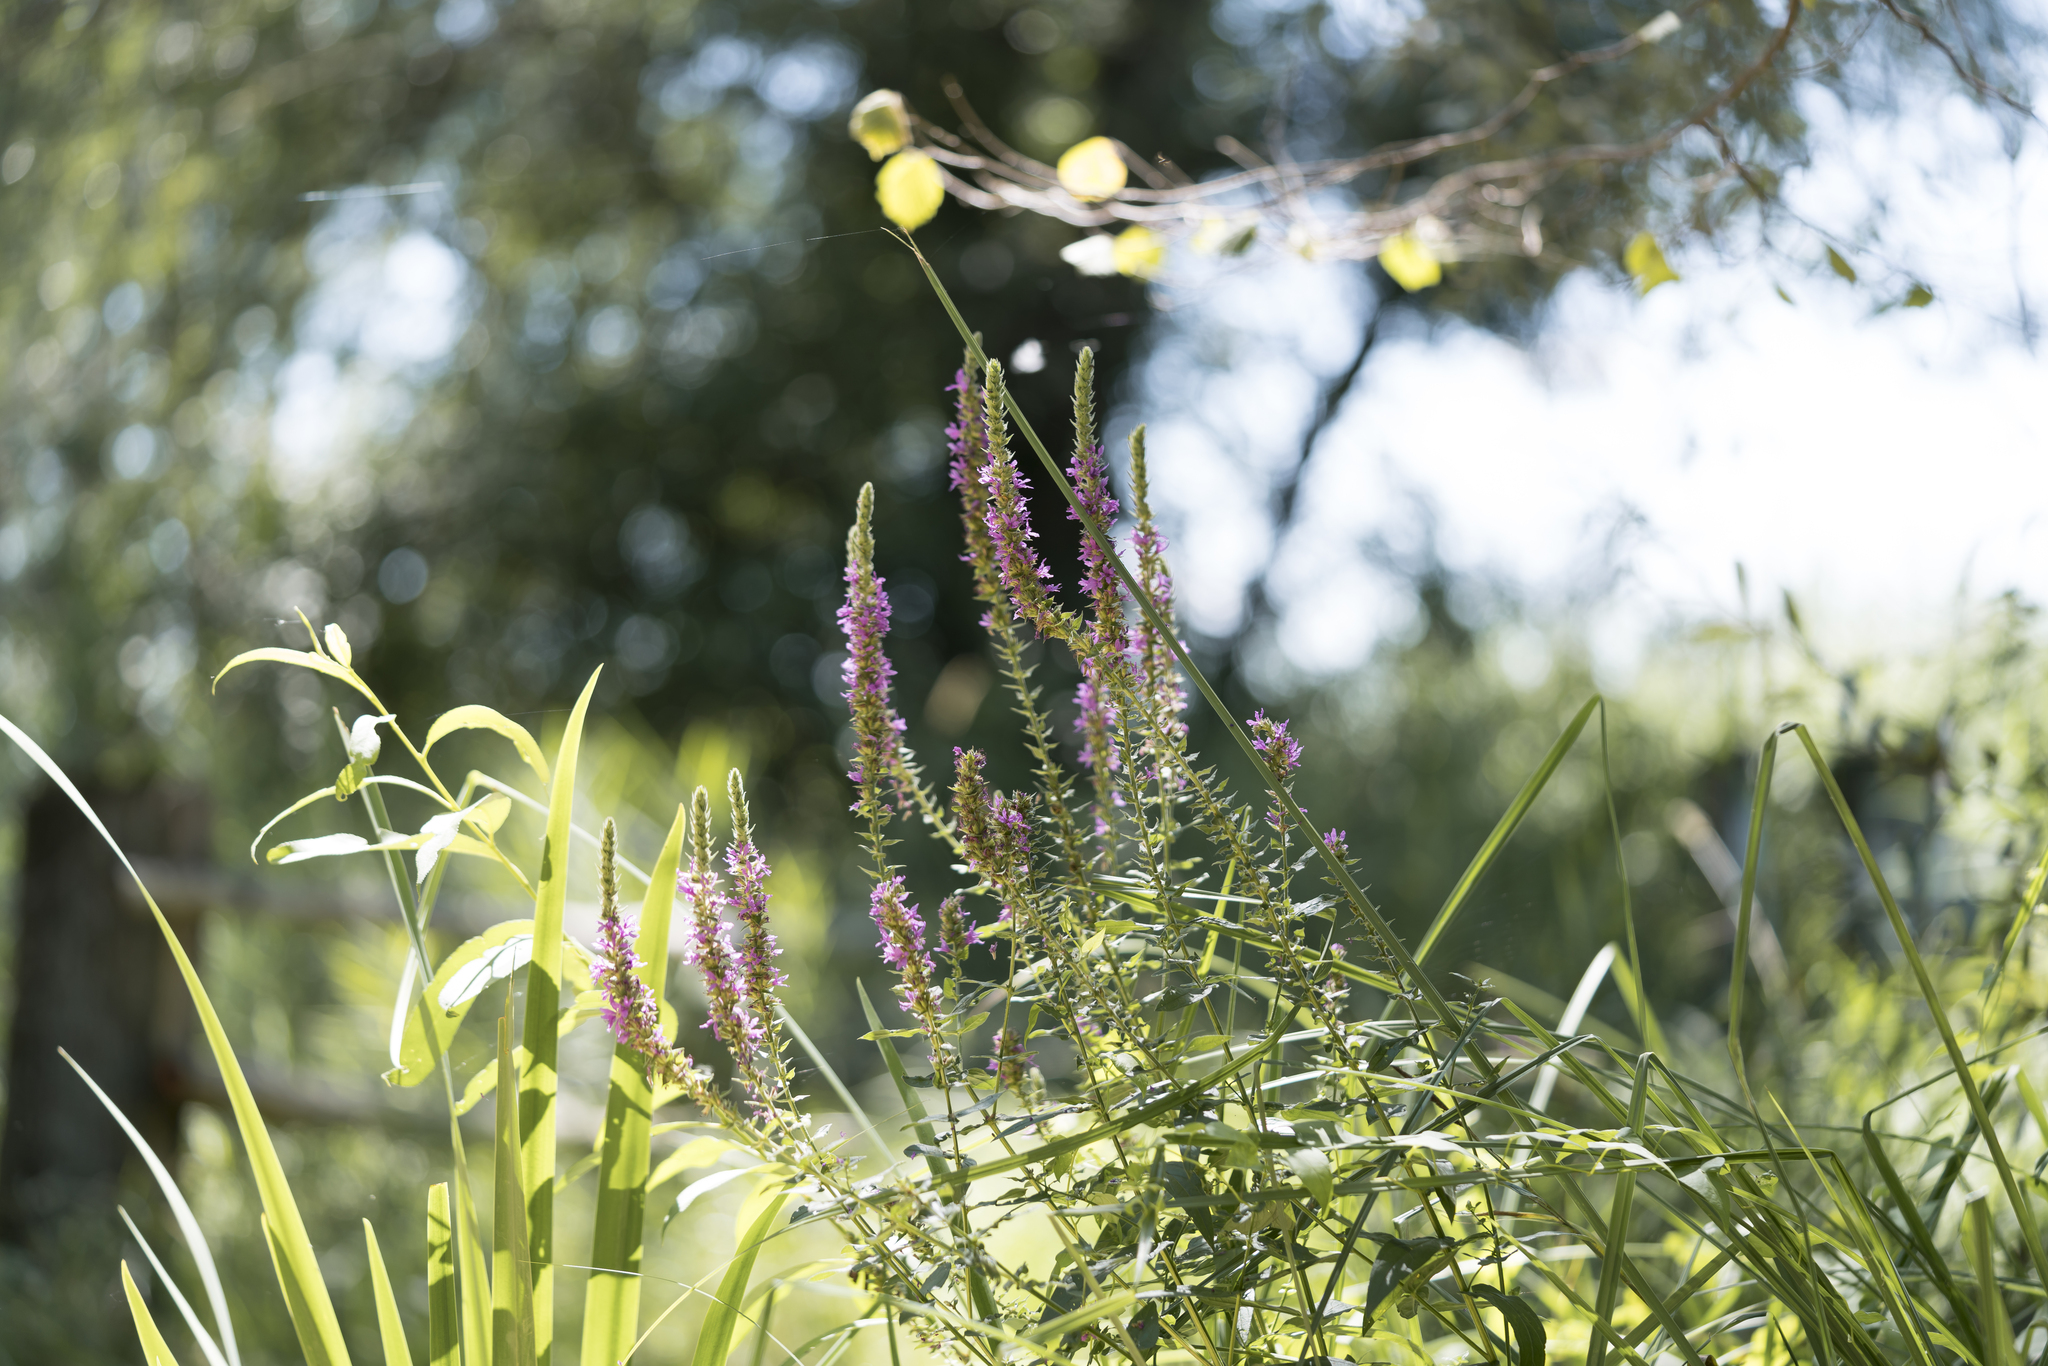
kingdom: Plantae
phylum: Tracheophyta
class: Magnoliopsida
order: Myrtales
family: Lythraceae
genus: Lythrum
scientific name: Lythrum salicaria
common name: Purple loosestrife
